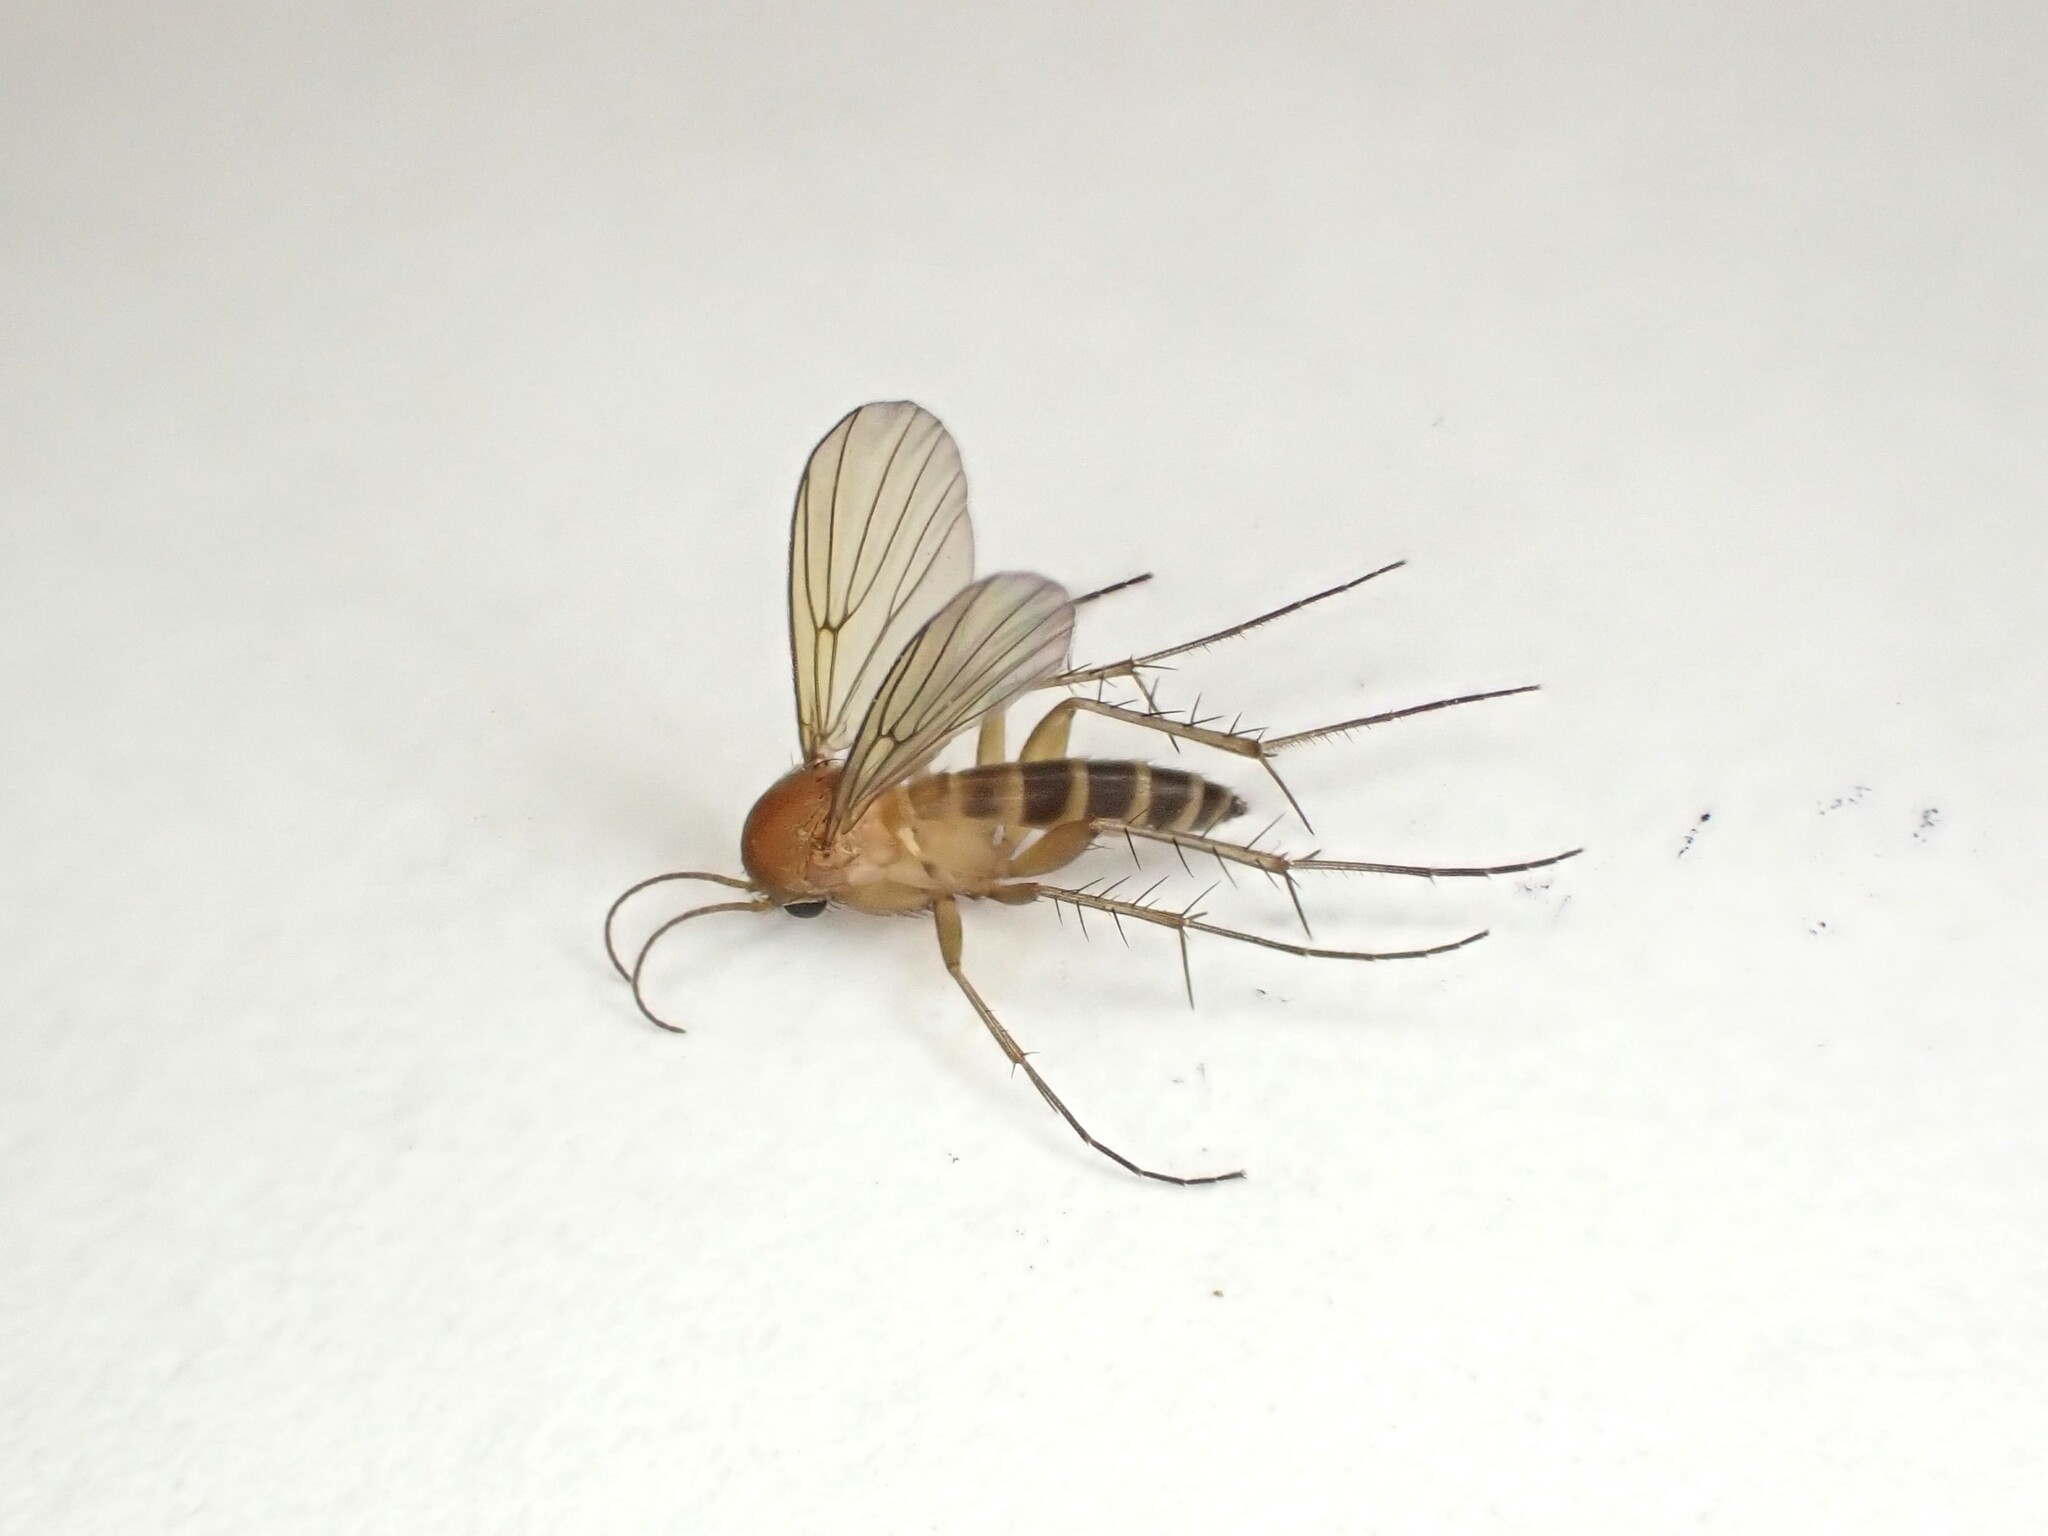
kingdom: Animalia
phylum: Arthropoda
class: Insecta
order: Diptera
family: Mycetophilidae
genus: Mycetophila
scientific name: Mycetophila subspinigera
